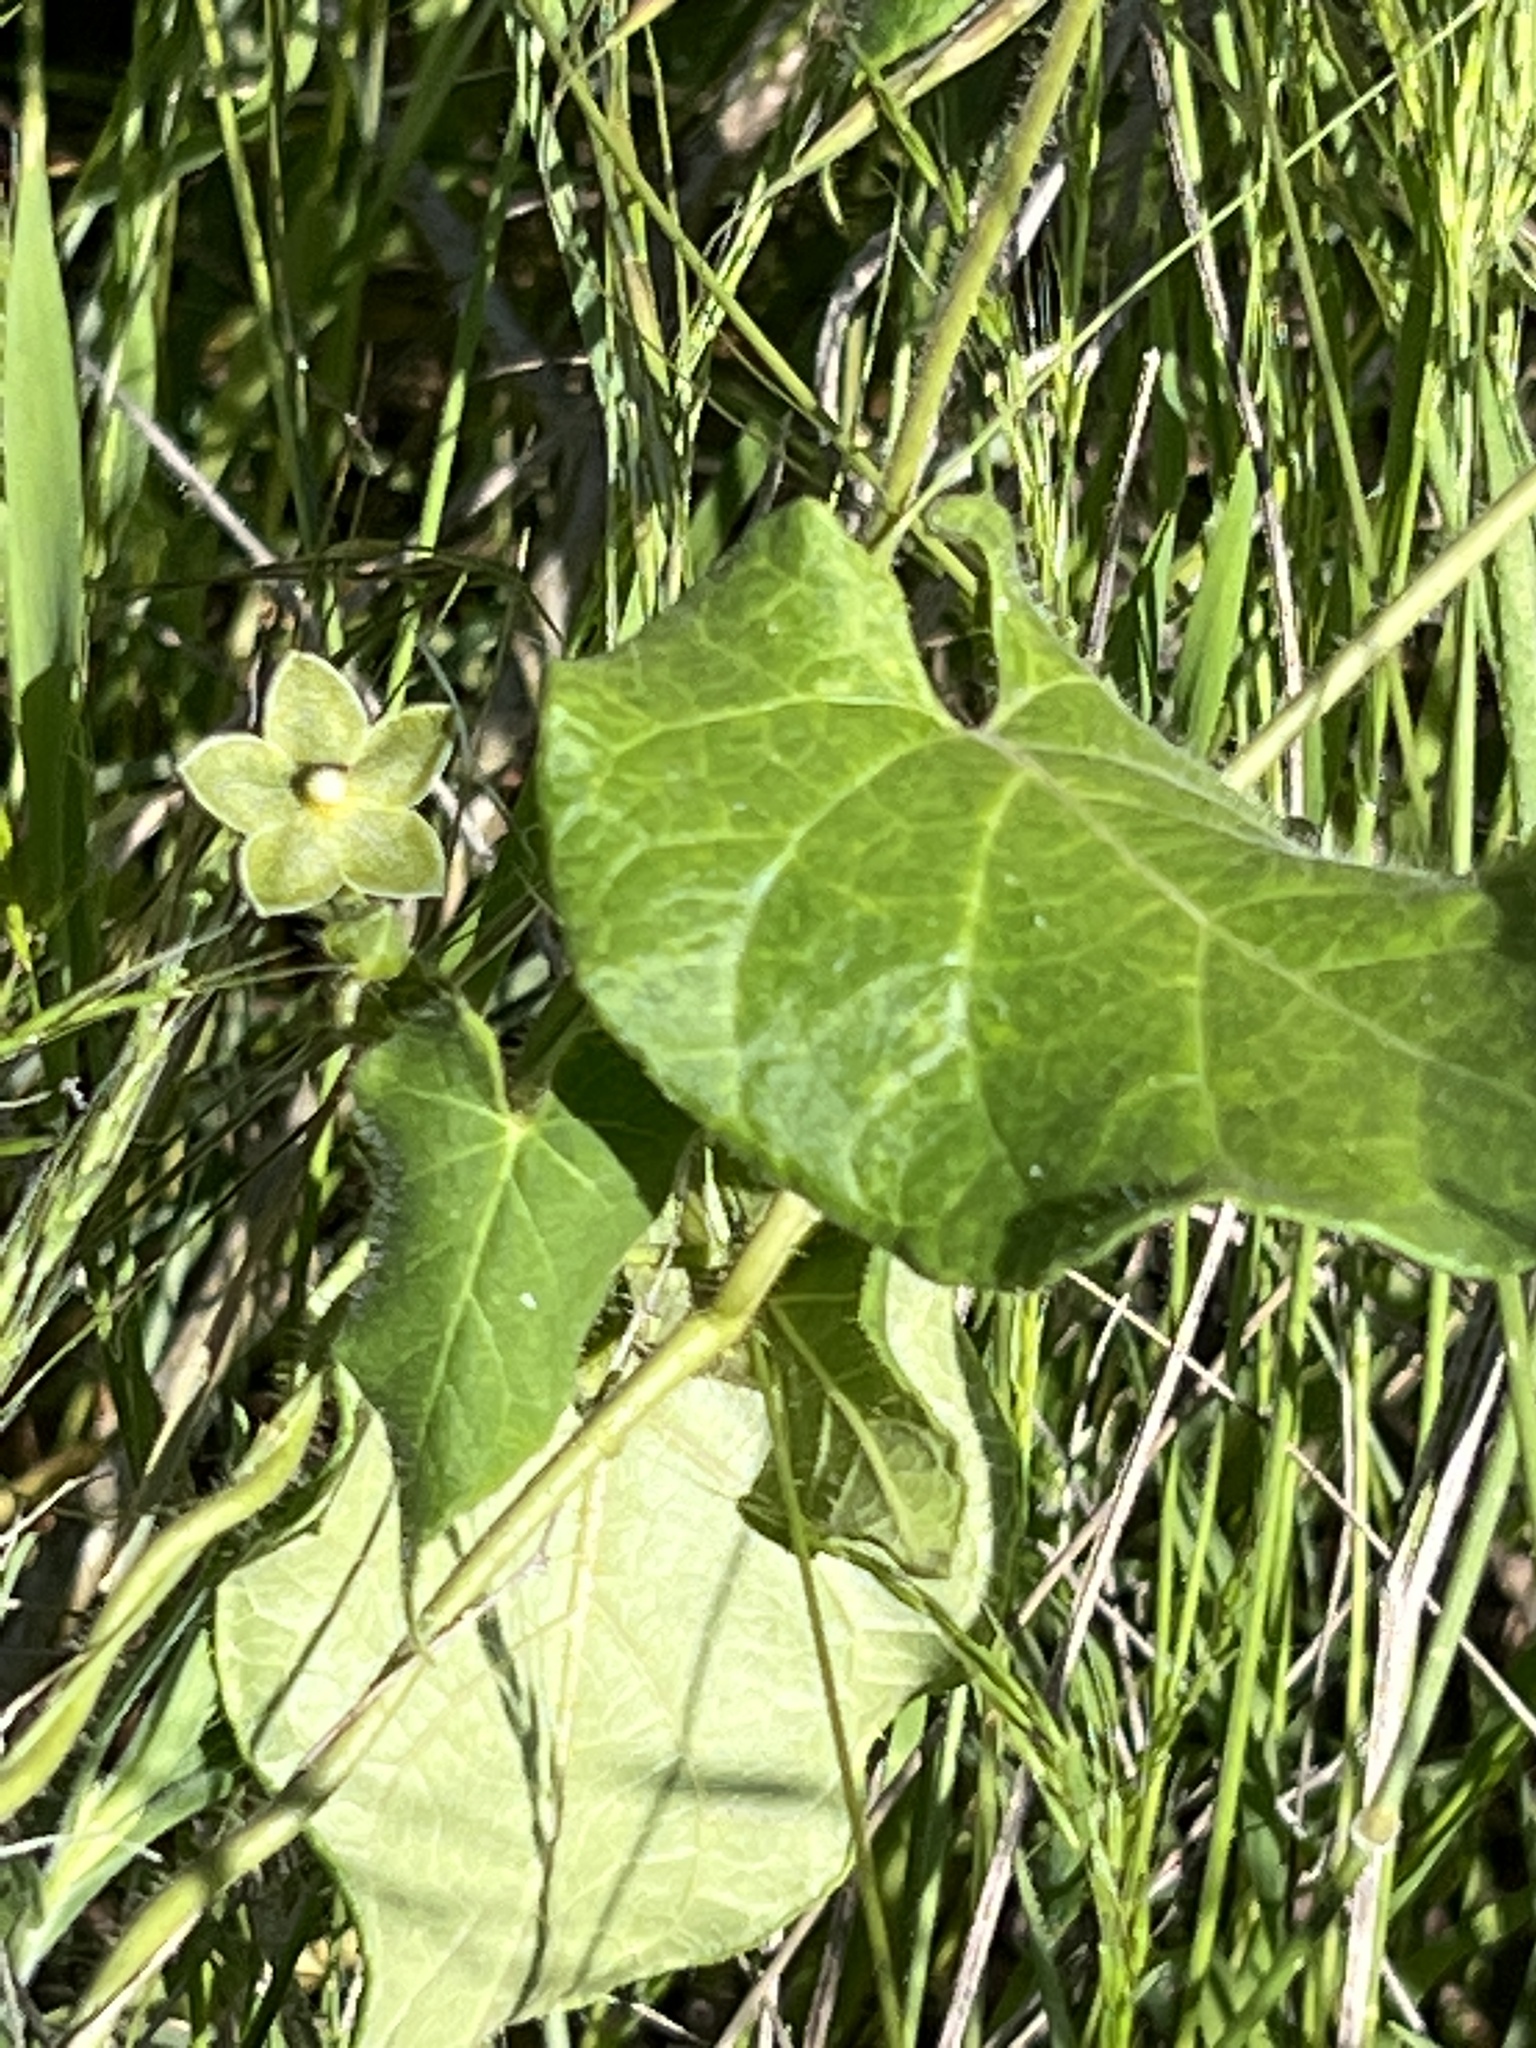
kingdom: Plantae
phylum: Tracheophyta
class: Magnoliopsida
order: Gentianales
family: Apocynaceae
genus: Dictyanthus
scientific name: Dictyanthus reticulatus
